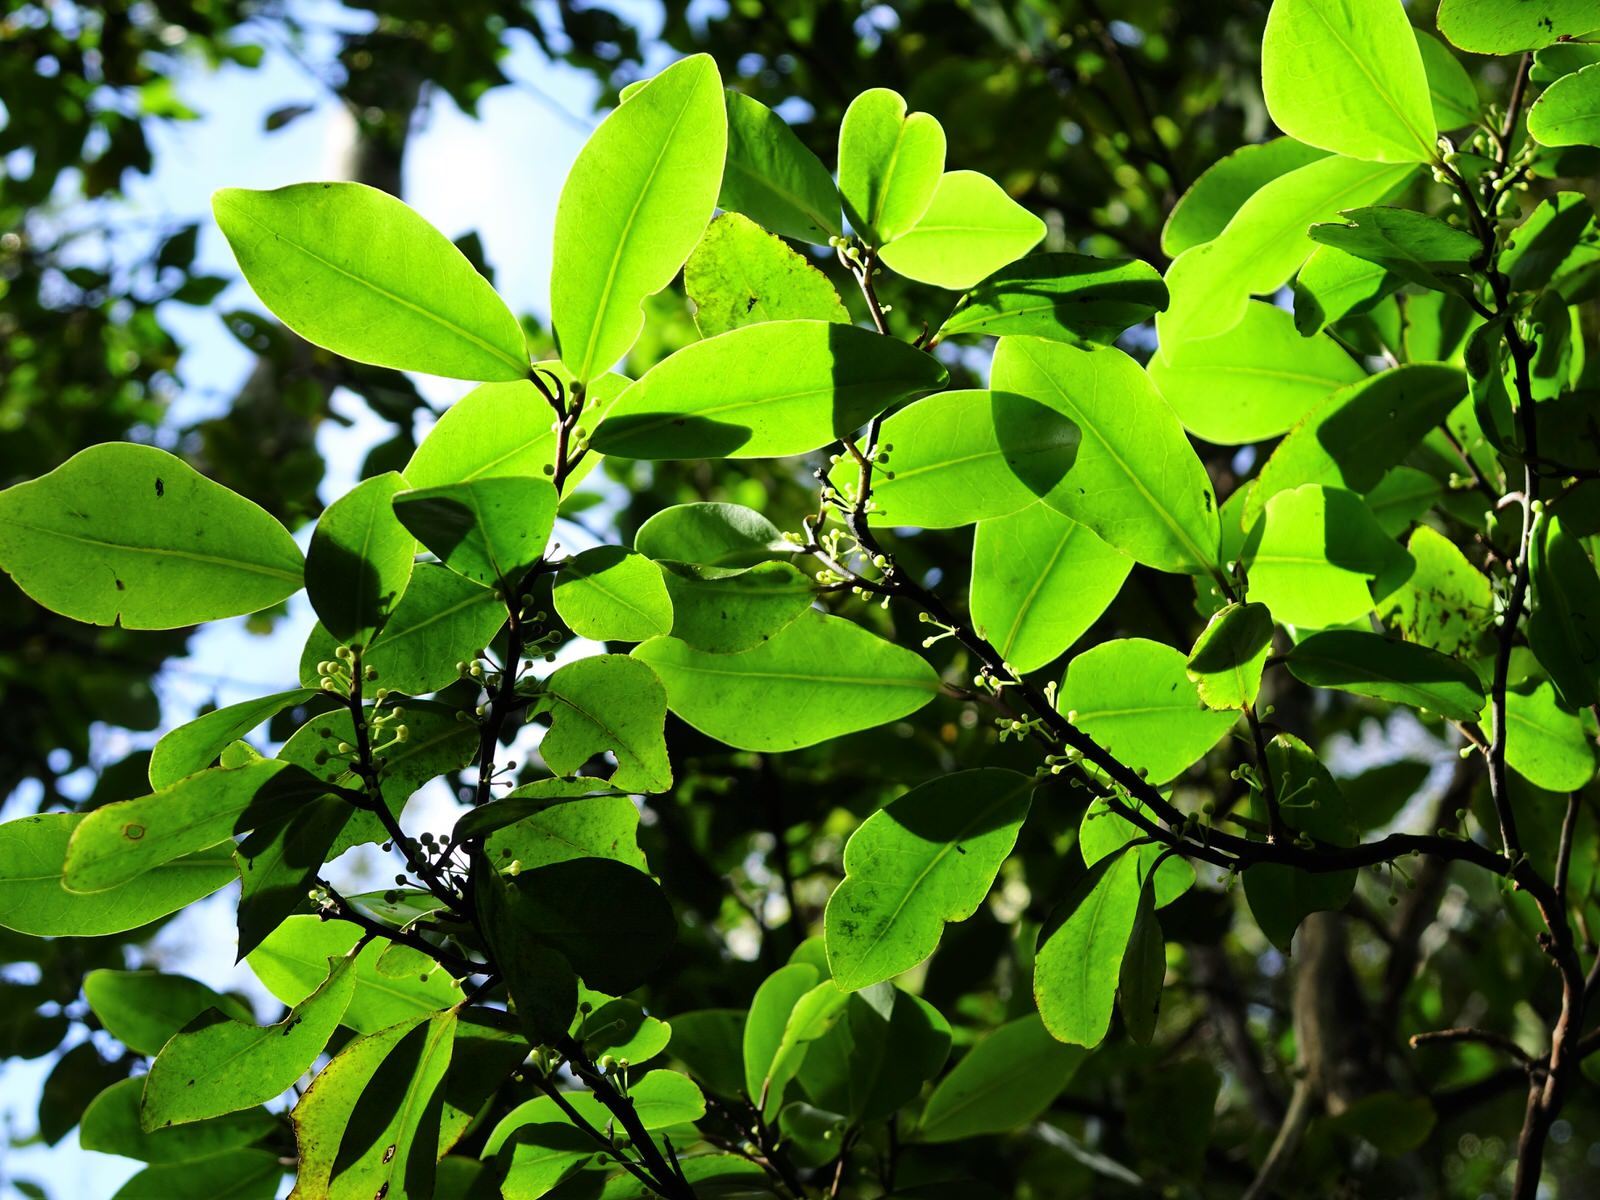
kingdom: Plantae
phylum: Tracheophyta
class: Magnoliopsida
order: Canellales
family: Winteraceae
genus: Pseudowintera
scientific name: Pseudowintera axillaris
